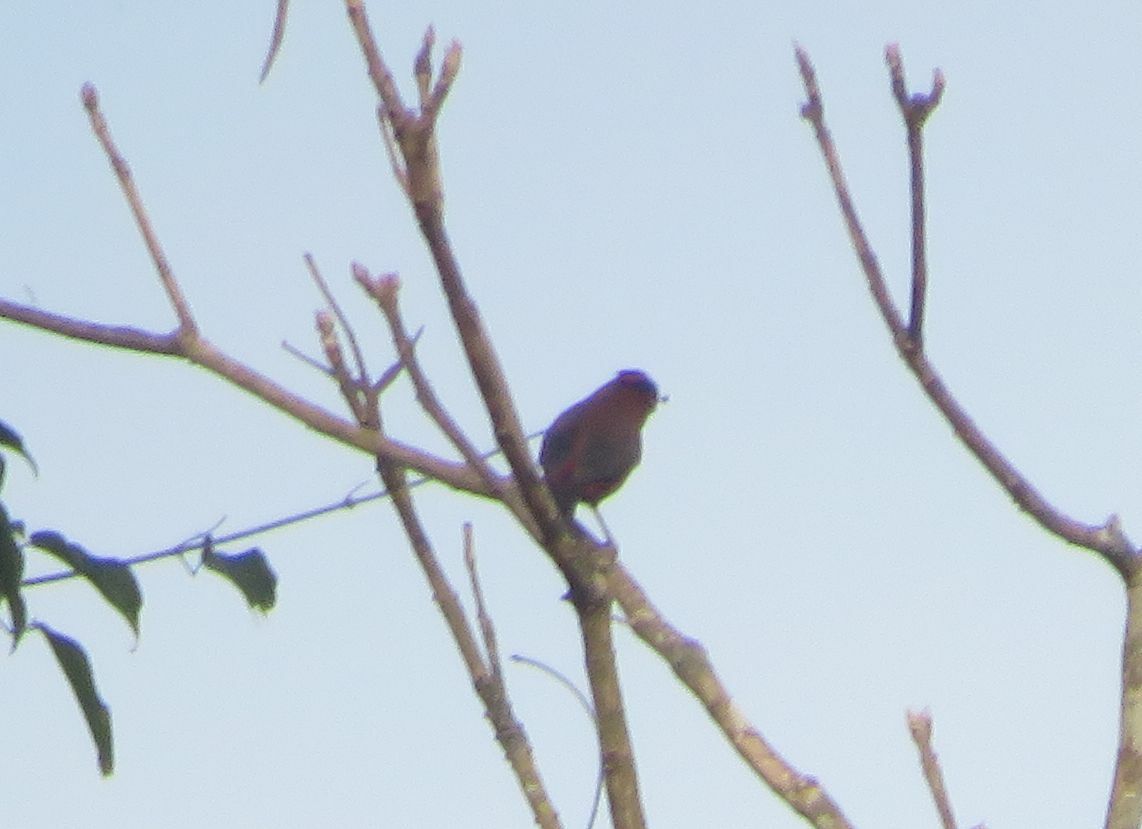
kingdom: Animalia
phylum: Chordata
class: Aves
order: Passeriformes
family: Thraupidae
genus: Coryphospingus
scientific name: Coryphospingus cucullatus
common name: Red pileated finch
